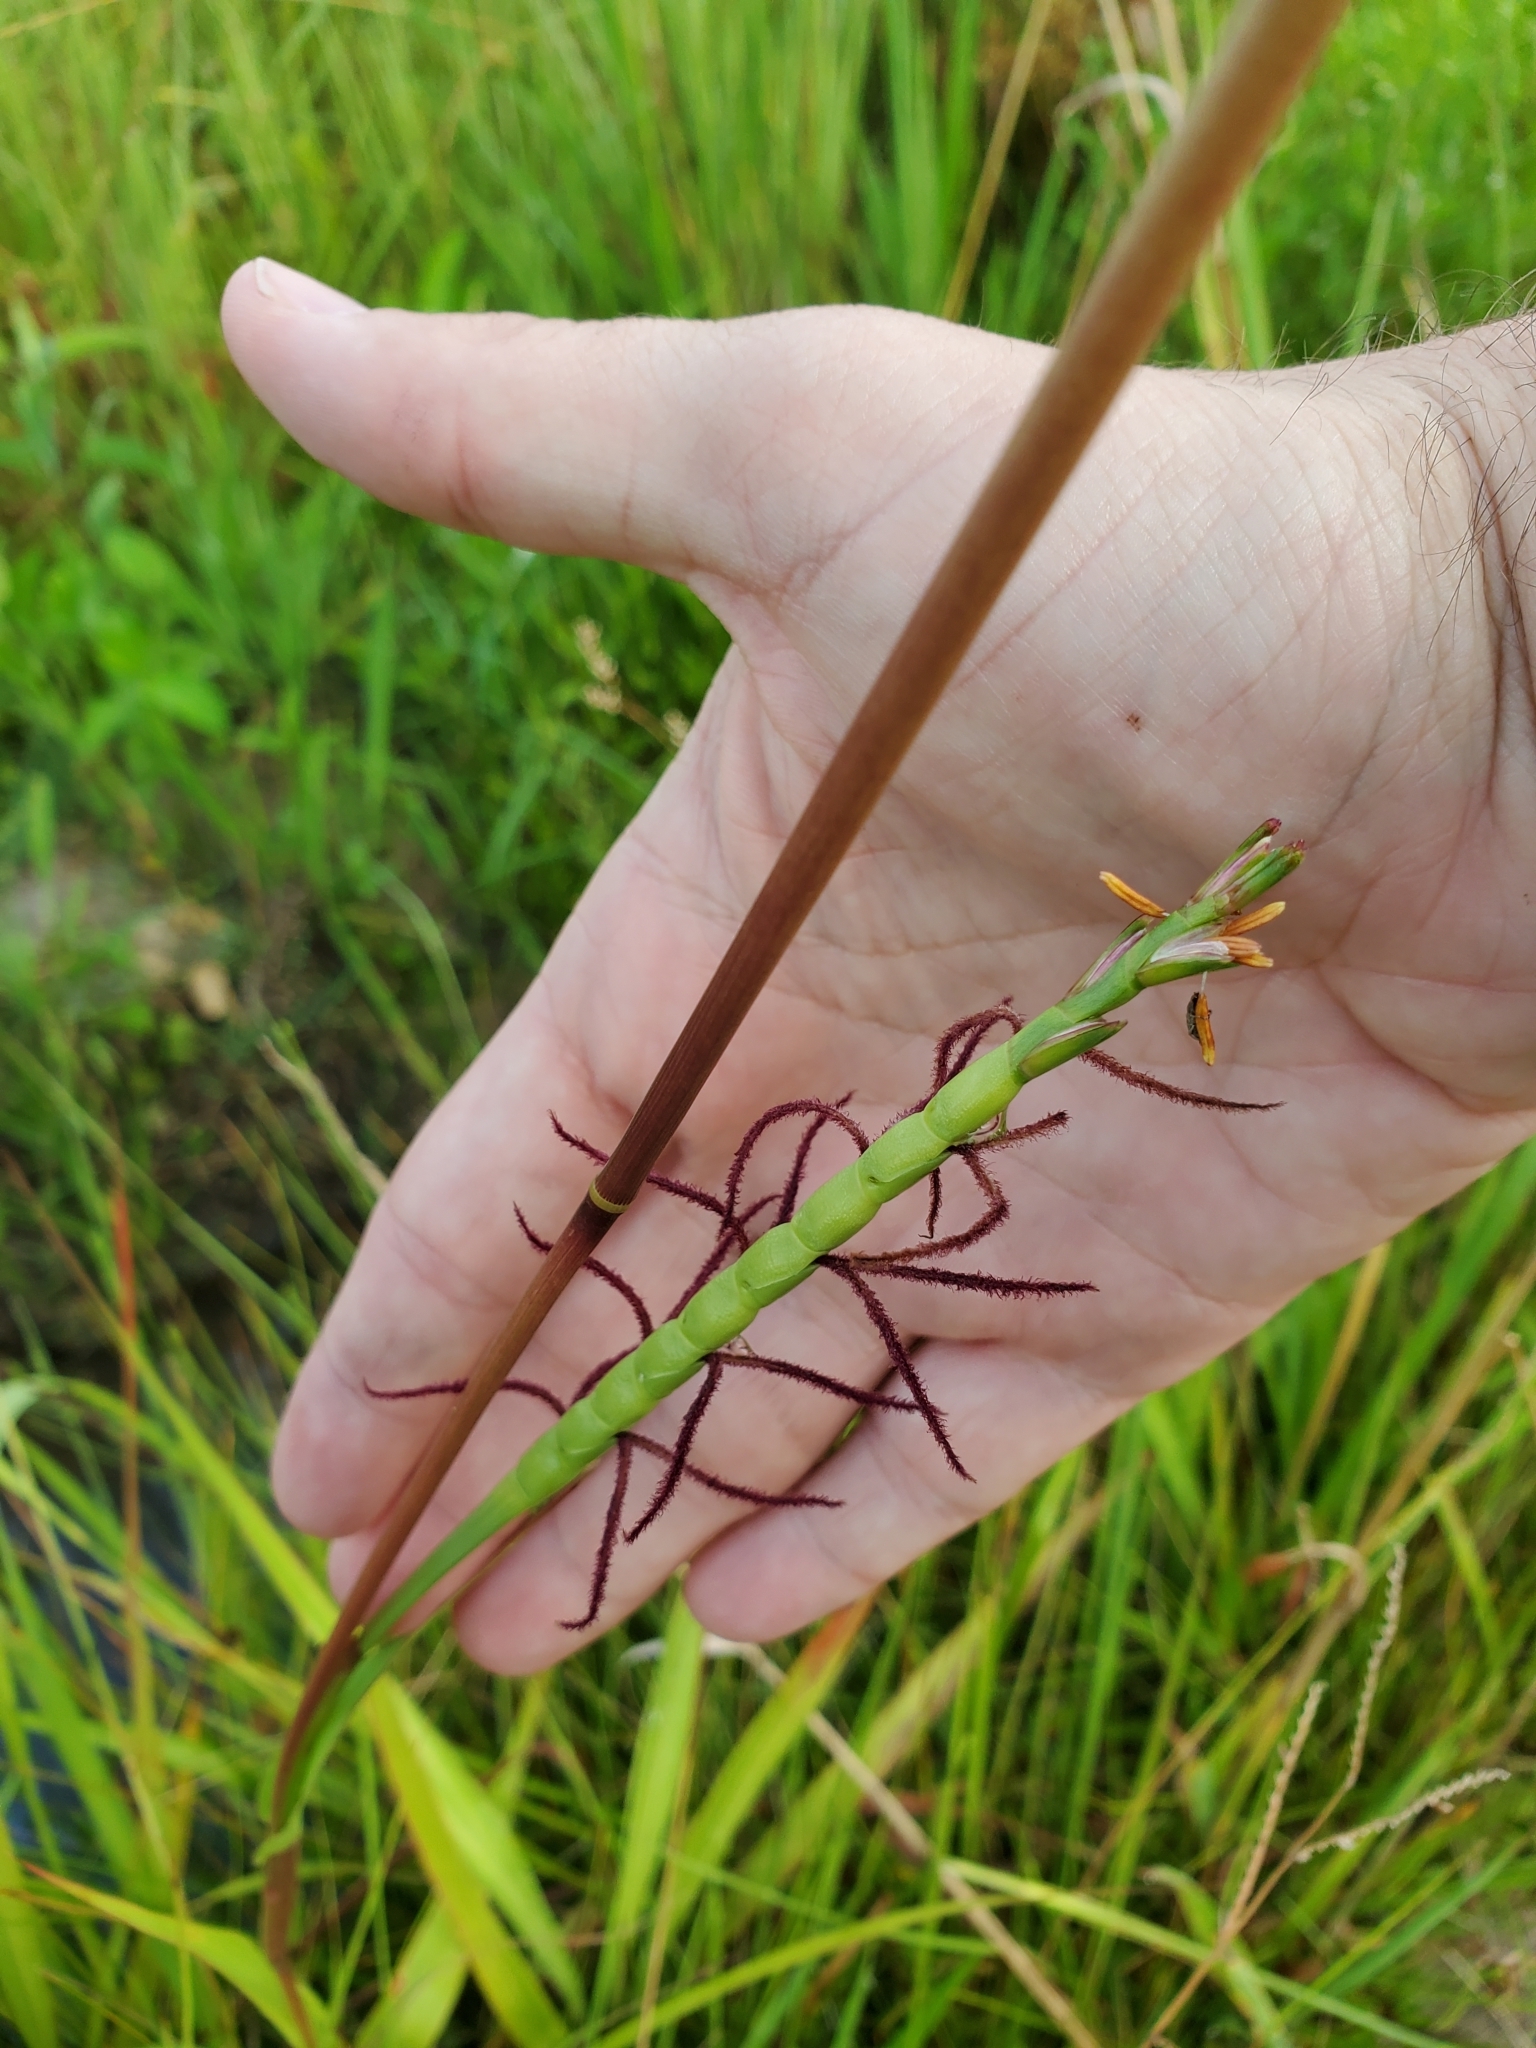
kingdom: Plantae
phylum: Tracheophyta
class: Liliopsida
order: Poales
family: Poaceae
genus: Tripsacum
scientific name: Tripsacum dactyloides
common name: Buffalo-grass
